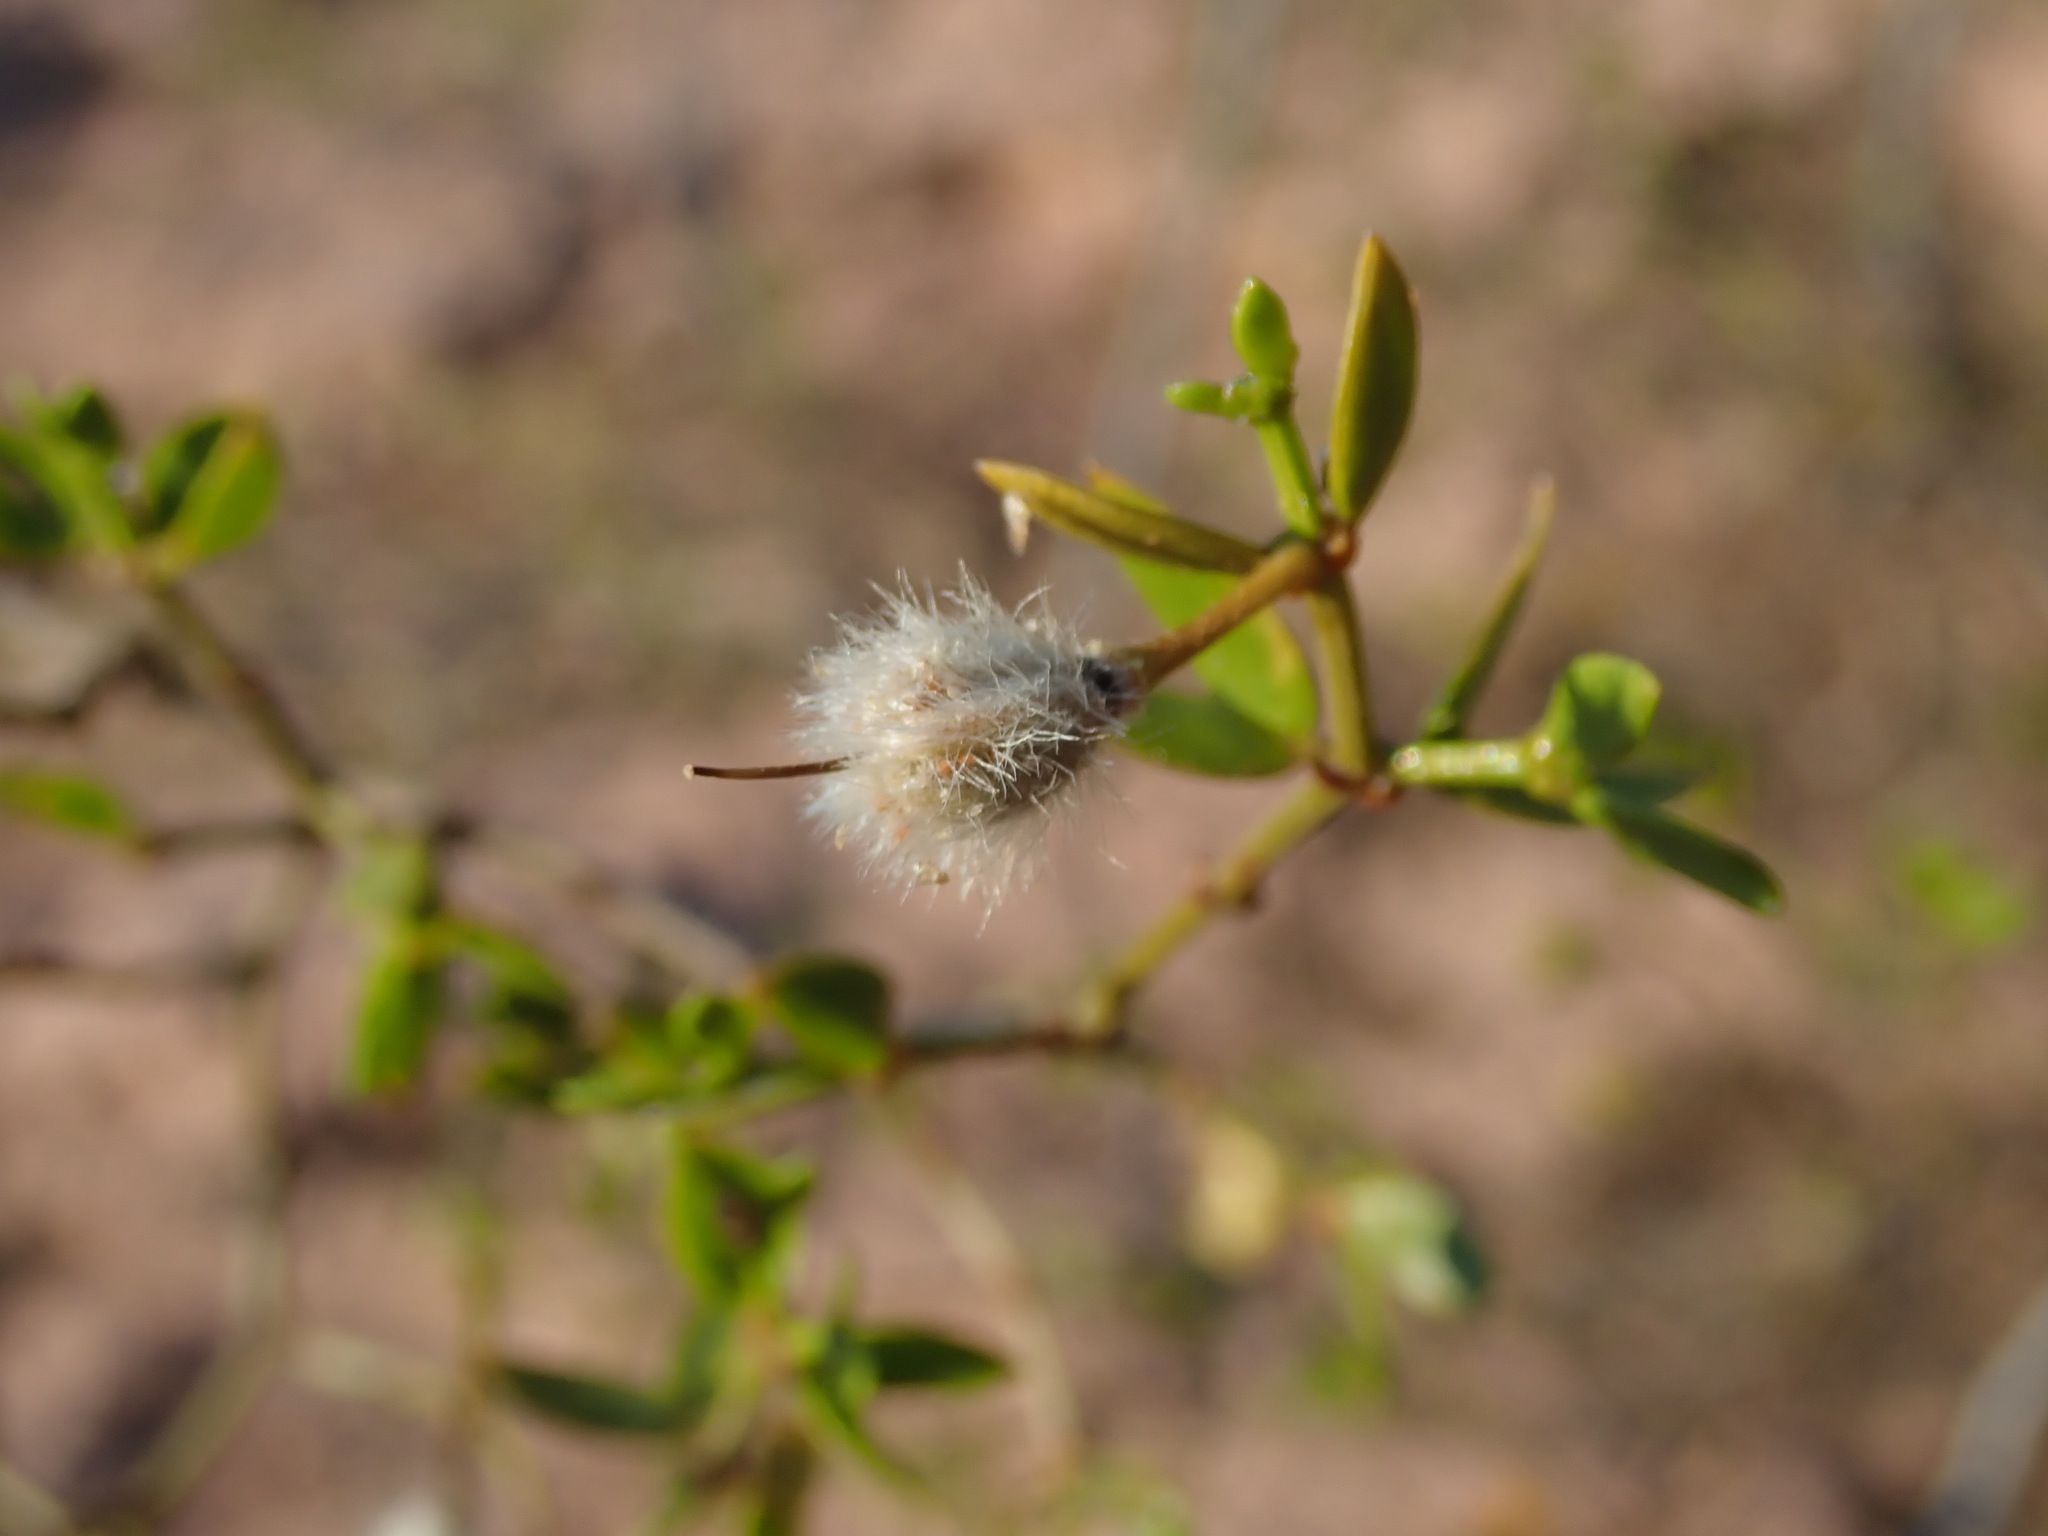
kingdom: Plantae
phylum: Tracheophyta
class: Magnoliopsida
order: Zygophyllales
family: Zygophyllaceae
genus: Larrea
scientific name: Larrea divaricata
